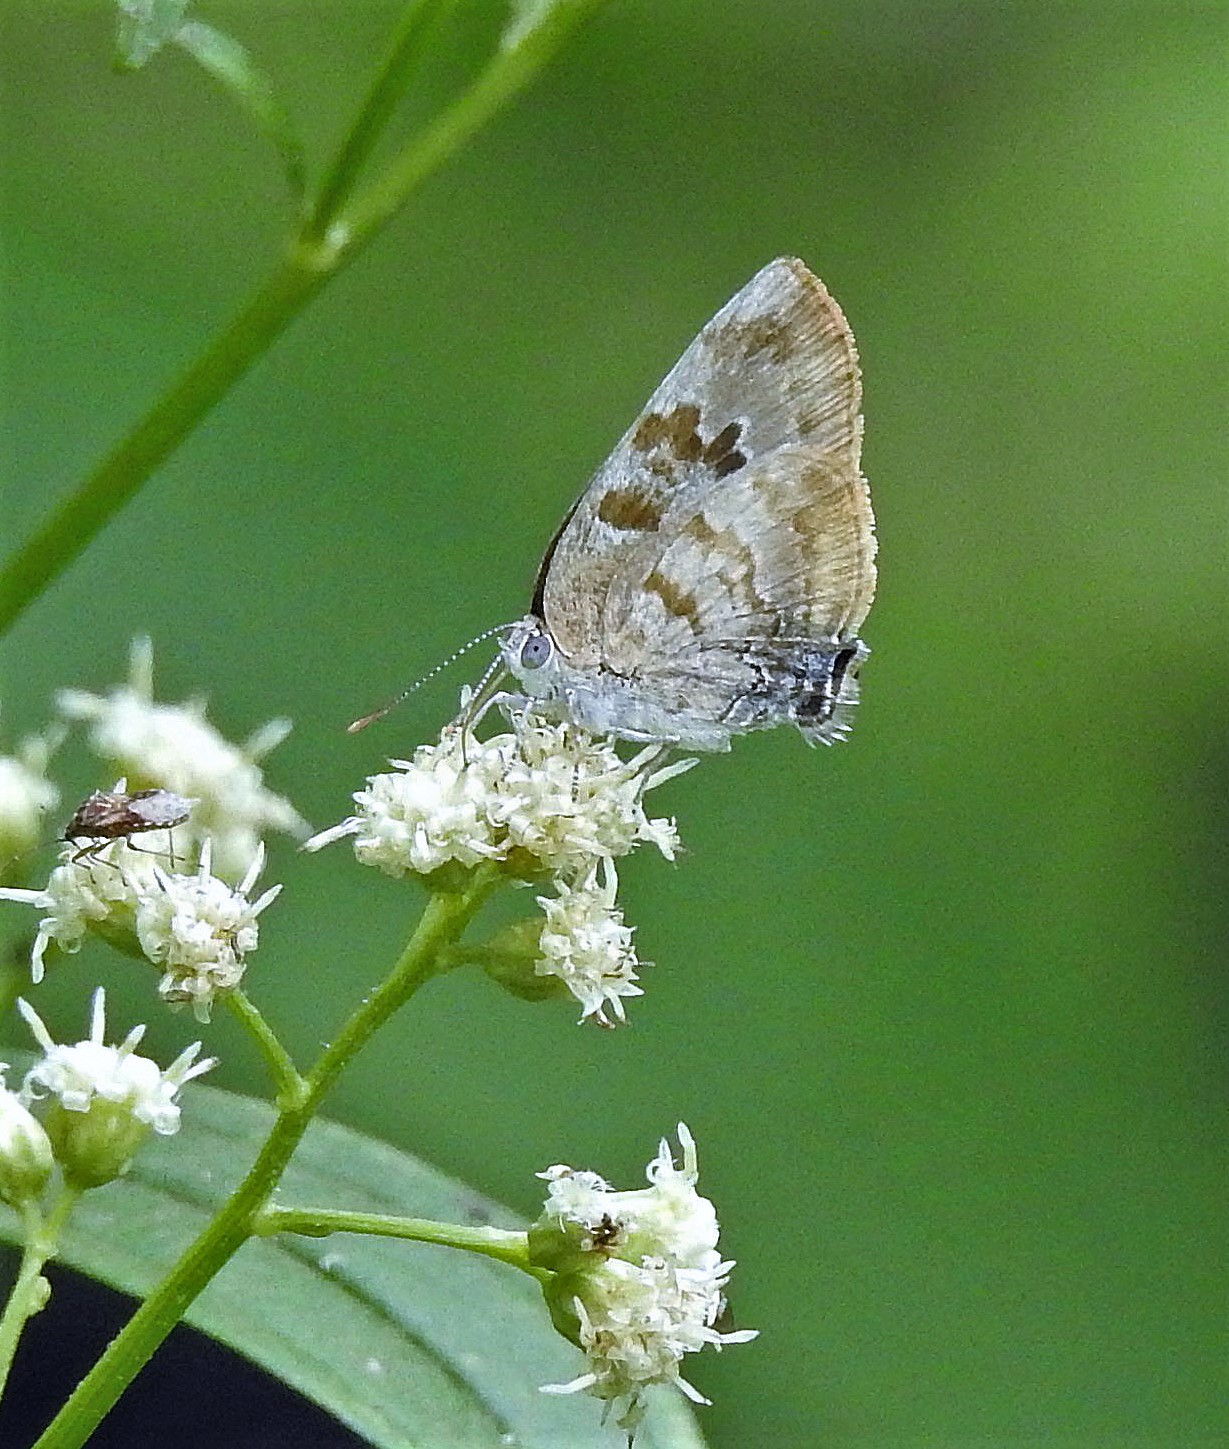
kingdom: Animalia
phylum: Arthropoda
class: Insecta
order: Lepidoptera
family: Lycaenidae
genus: Rekoa
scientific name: Rekoa palegon
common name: Gold-bordered hairstreak
